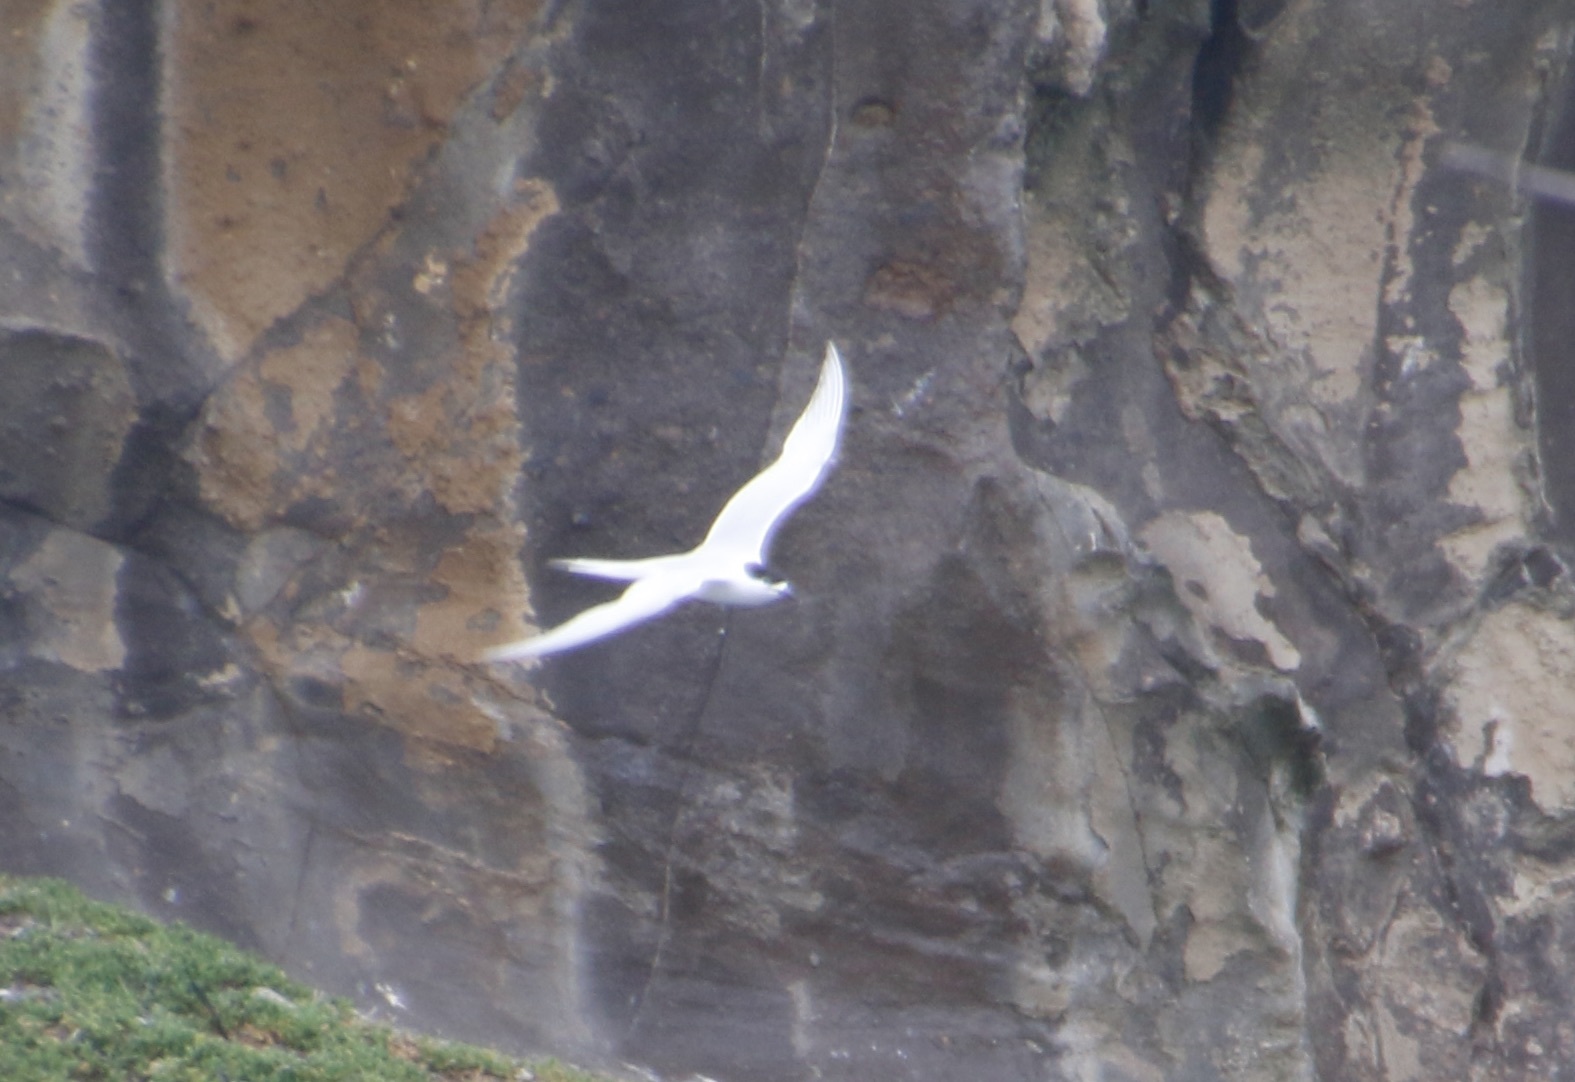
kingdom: Animalia
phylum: Chordata
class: Aves
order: Charadriiformes
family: Laridae
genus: Sterna
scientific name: Sterna striata
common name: White-fronted tern
